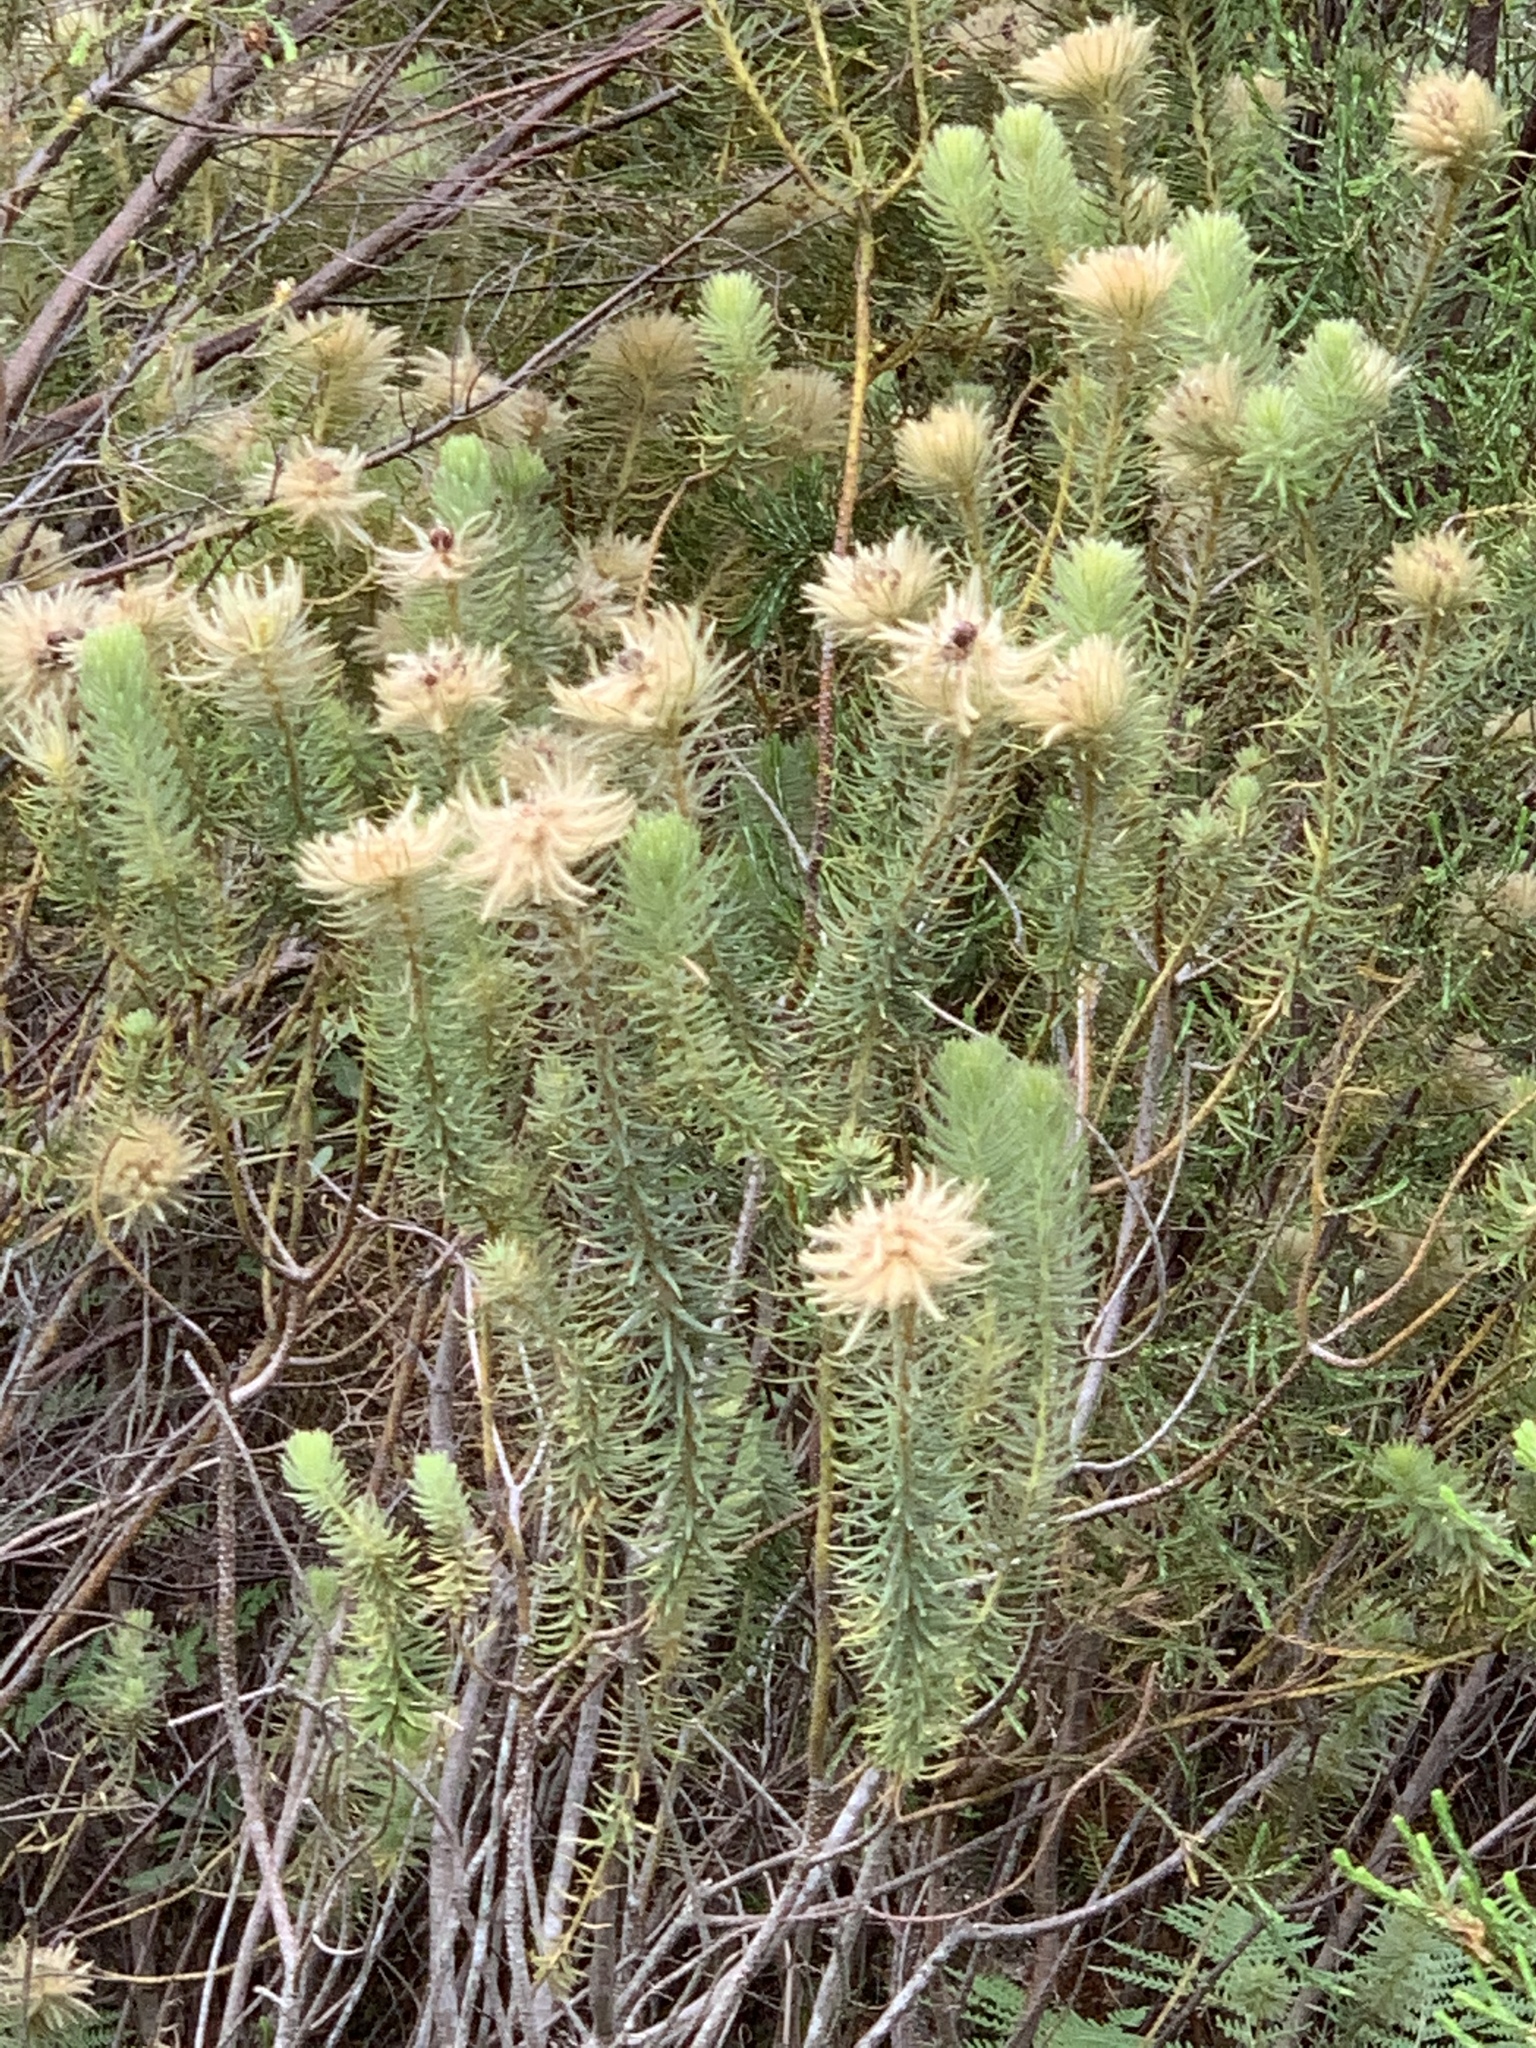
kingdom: Plantae
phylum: Tracheophyta
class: Magnoliopsida
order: Rosales
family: Rhamnaceae
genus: Phylica
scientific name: Phylica pubescens
